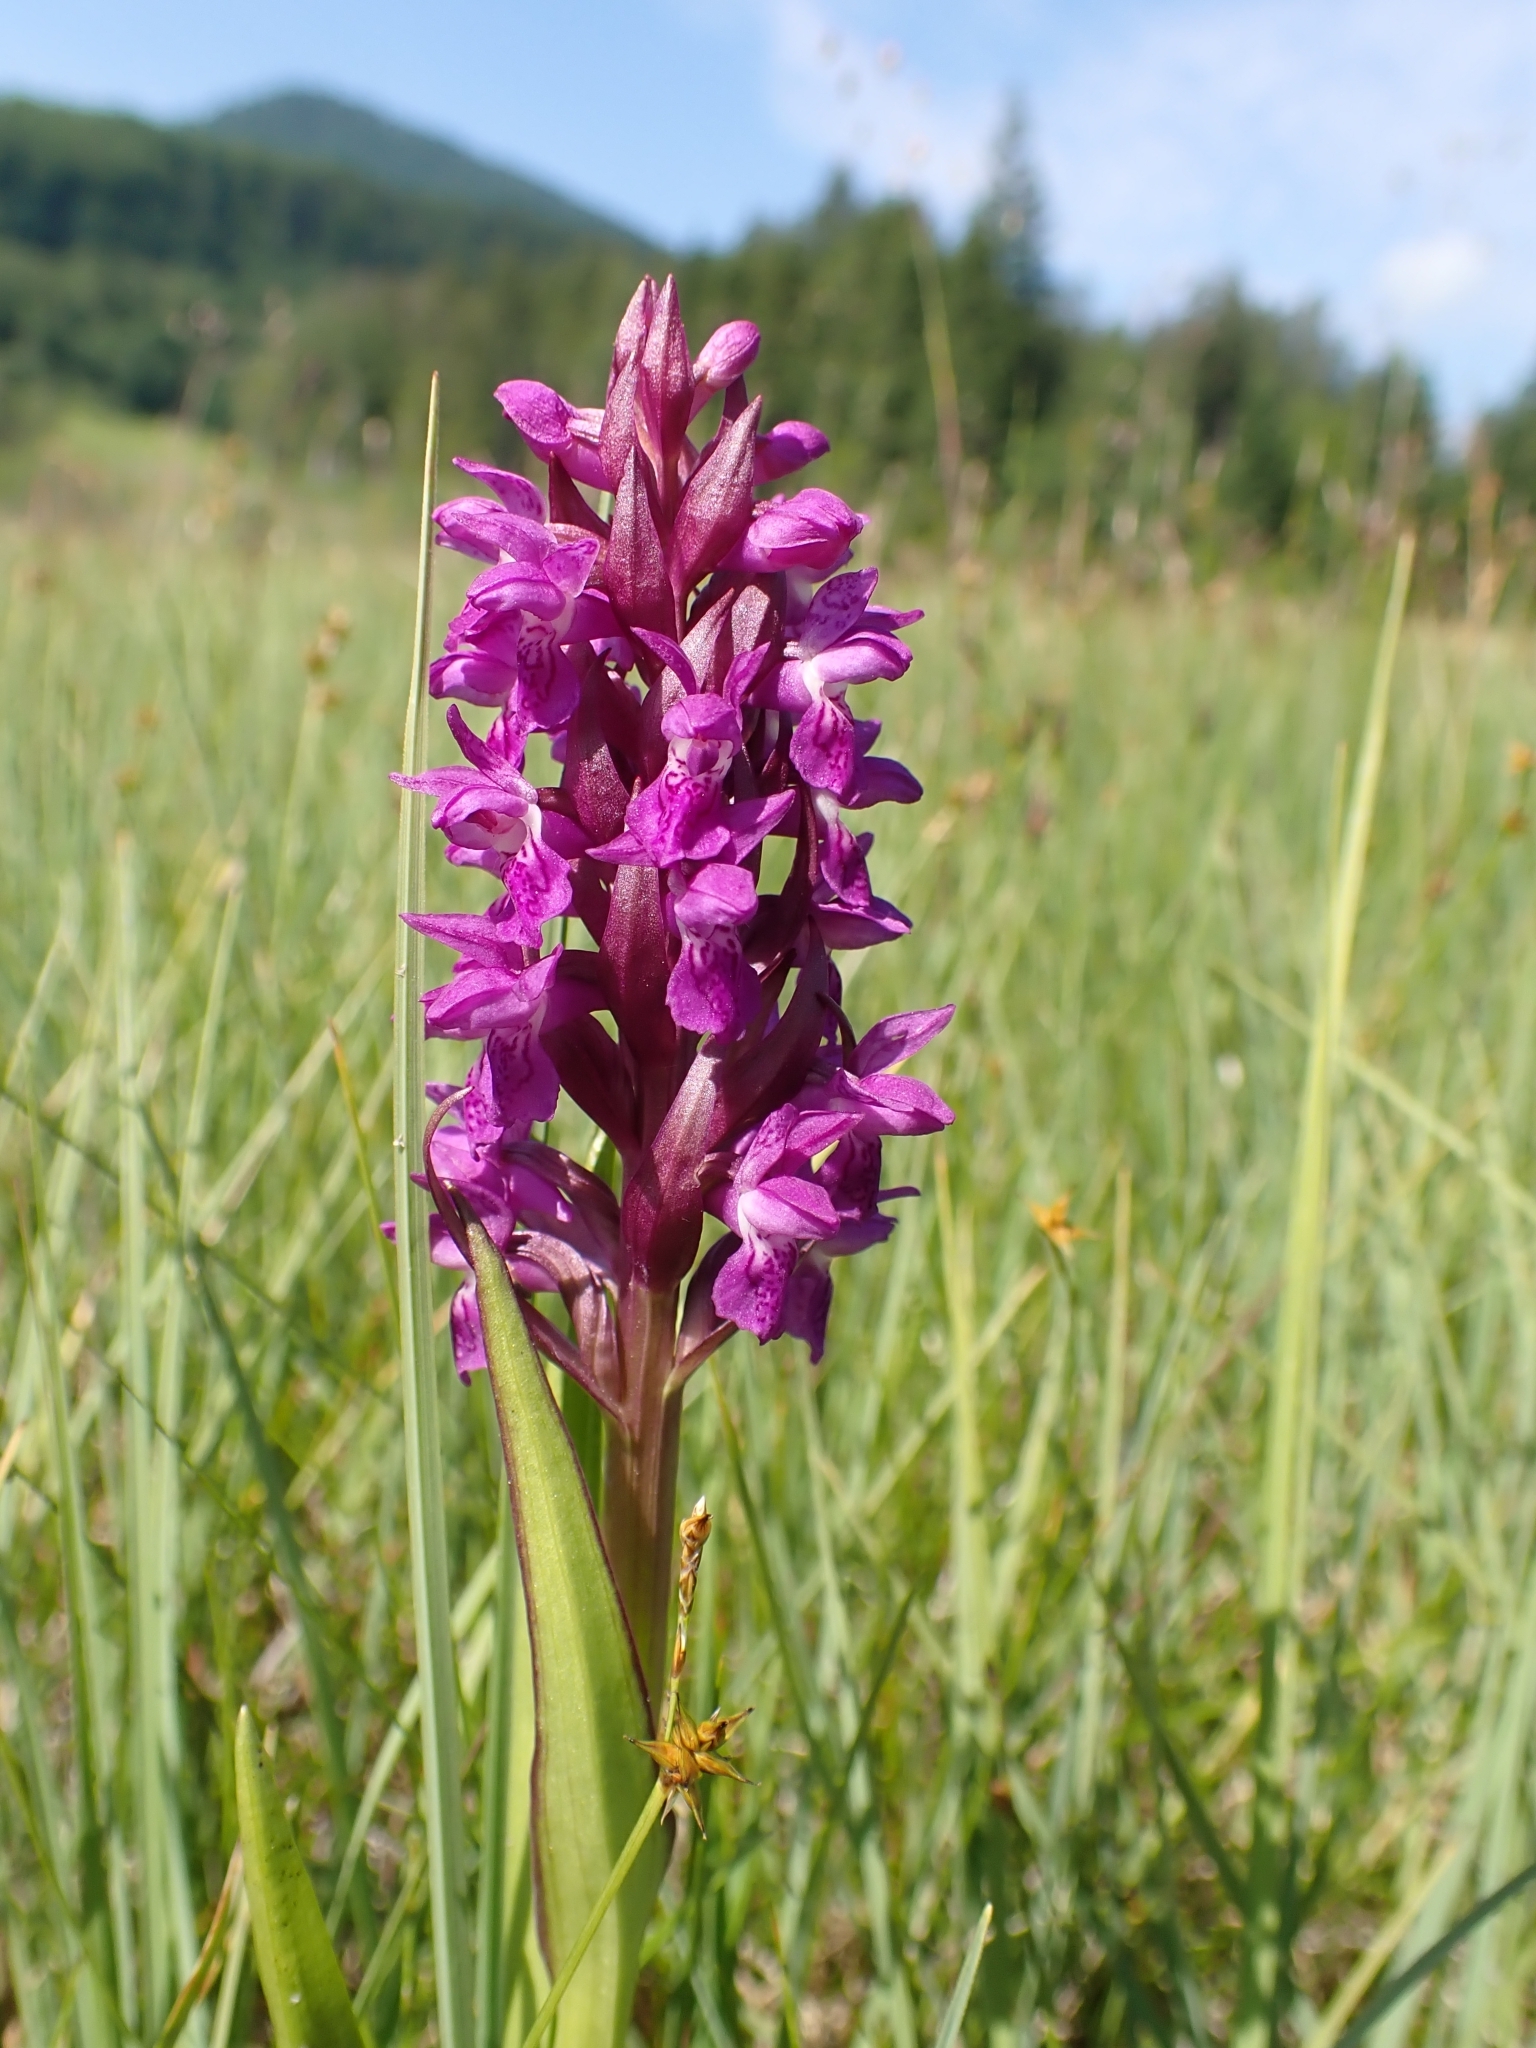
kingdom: Plantae
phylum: Tracheophyta
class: Liliopsida
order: Asparagales
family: Orchidaceae
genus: Dactylorhiza
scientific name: Dactylorhiza incarnata
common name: Early marsh-orchid
